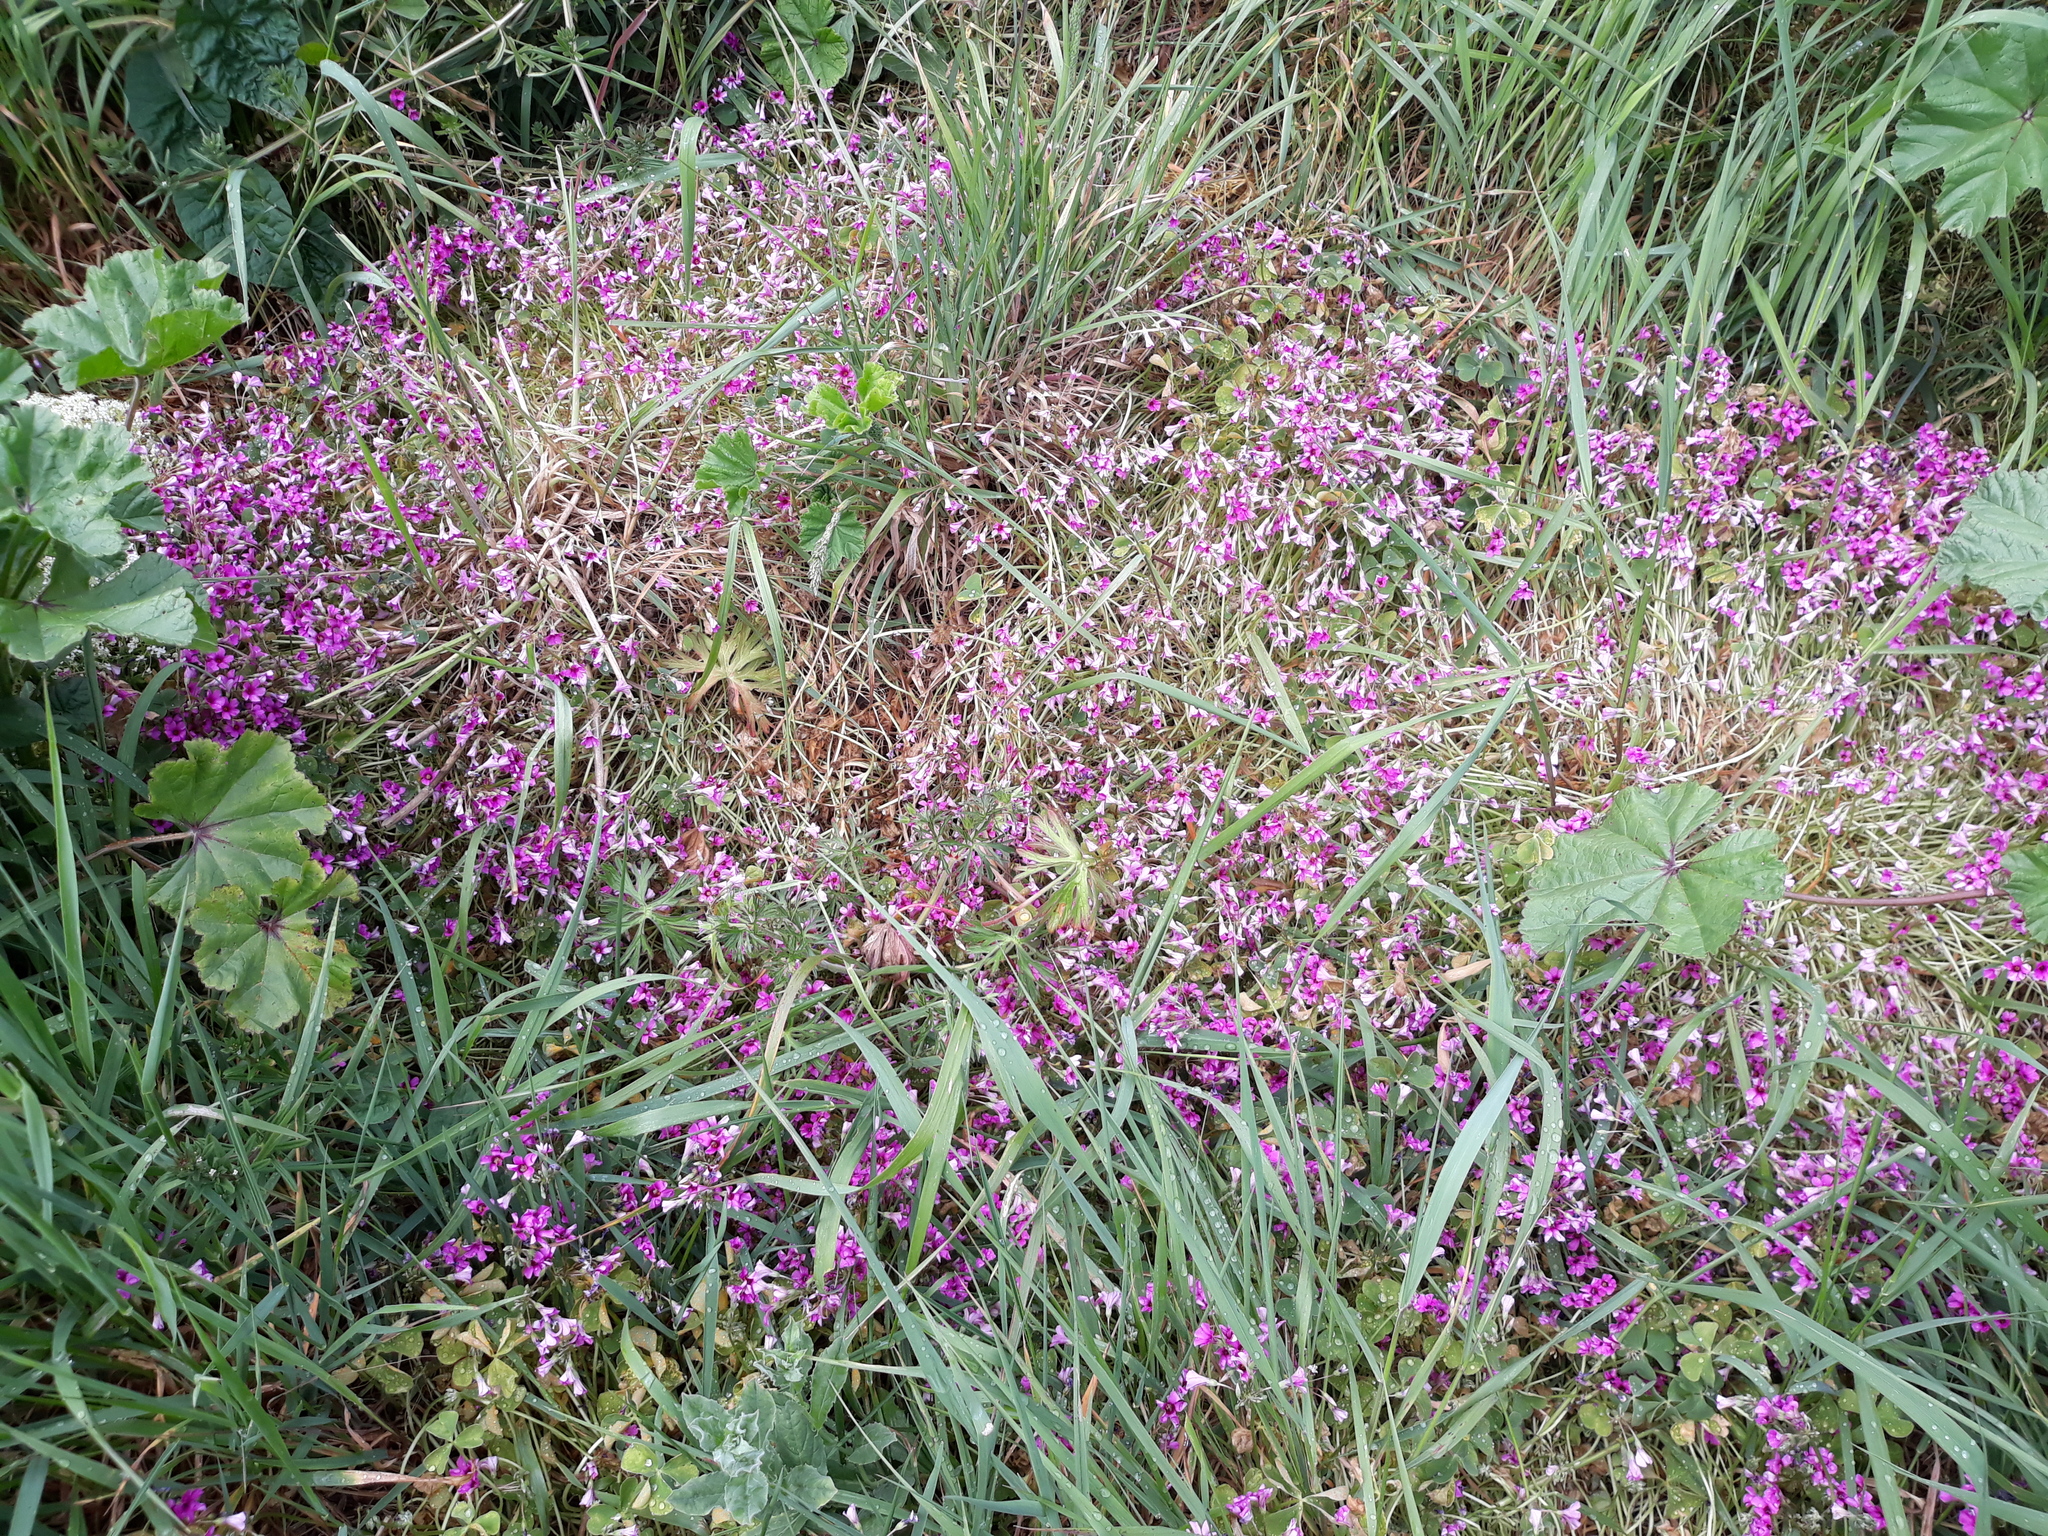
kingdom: Plantae
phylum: Tracheophyta
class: Magnoliopsida
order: Oxalidales
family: Oxalidaceae
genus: Oxalis
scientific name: Oxalis articulata
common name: Pink-sorrel
